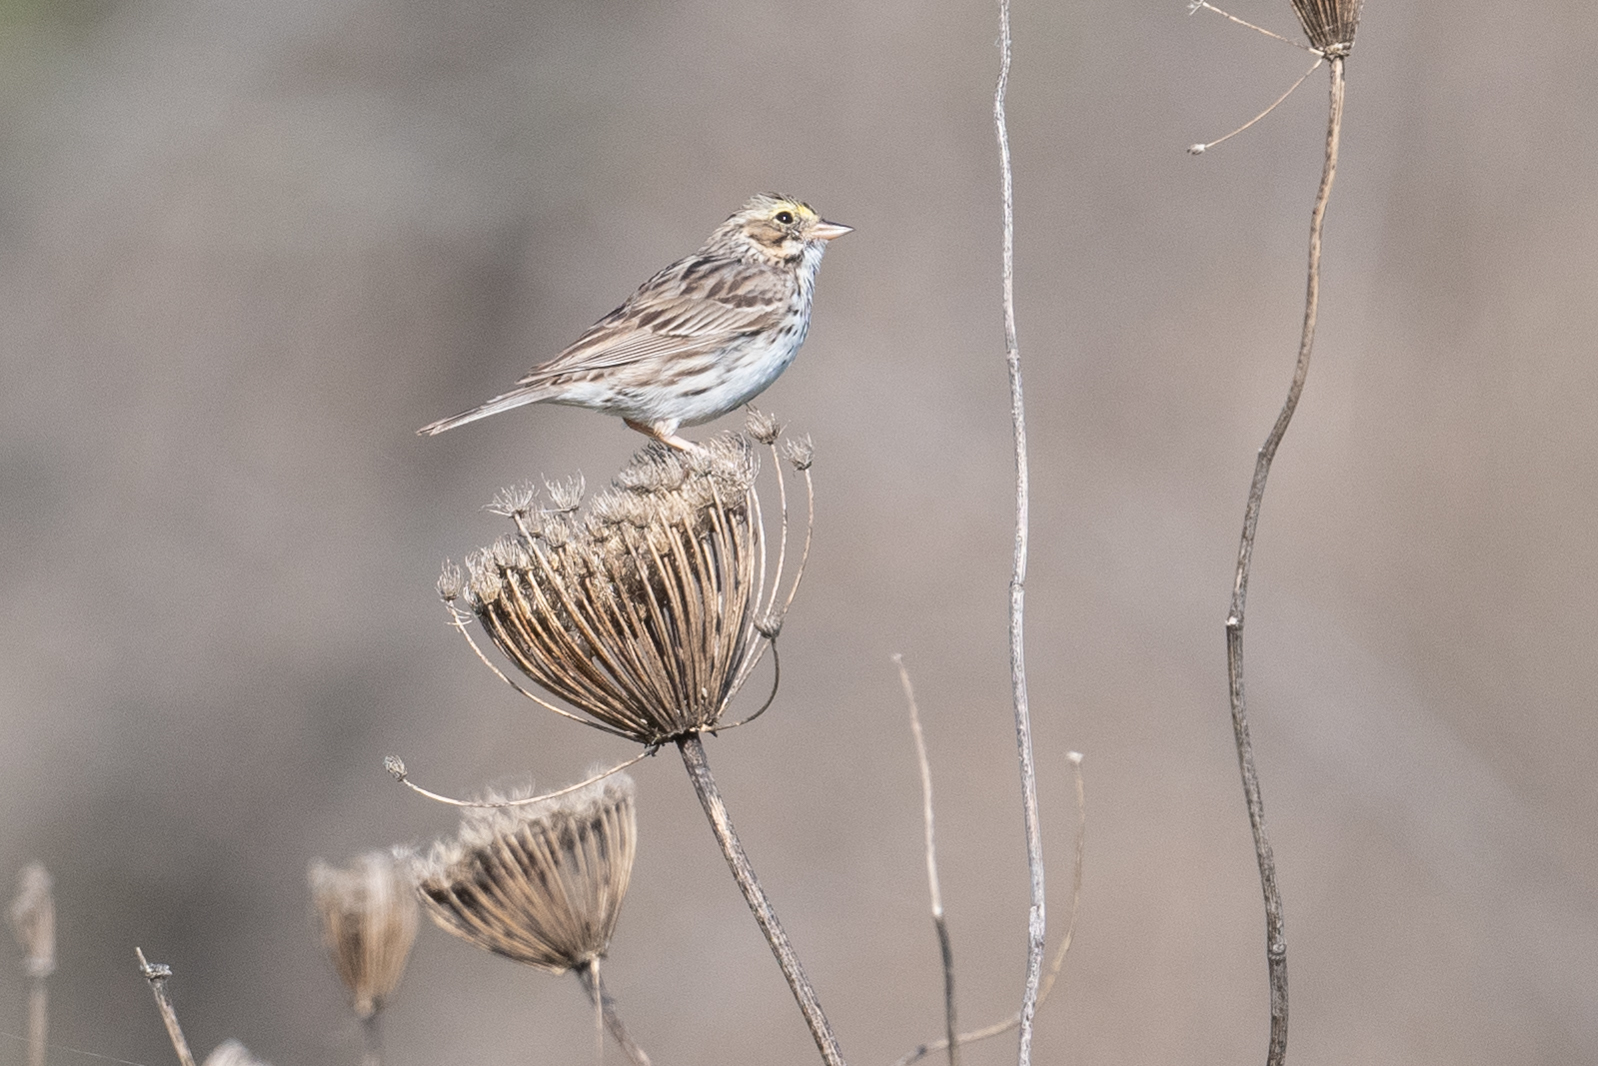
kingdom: Animalia
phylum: Chordata
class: Aves
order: Passeriformes
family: Passerellidae
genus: Passerculus
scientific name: Passerculus sandwichensis
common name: Savannah sparrow
